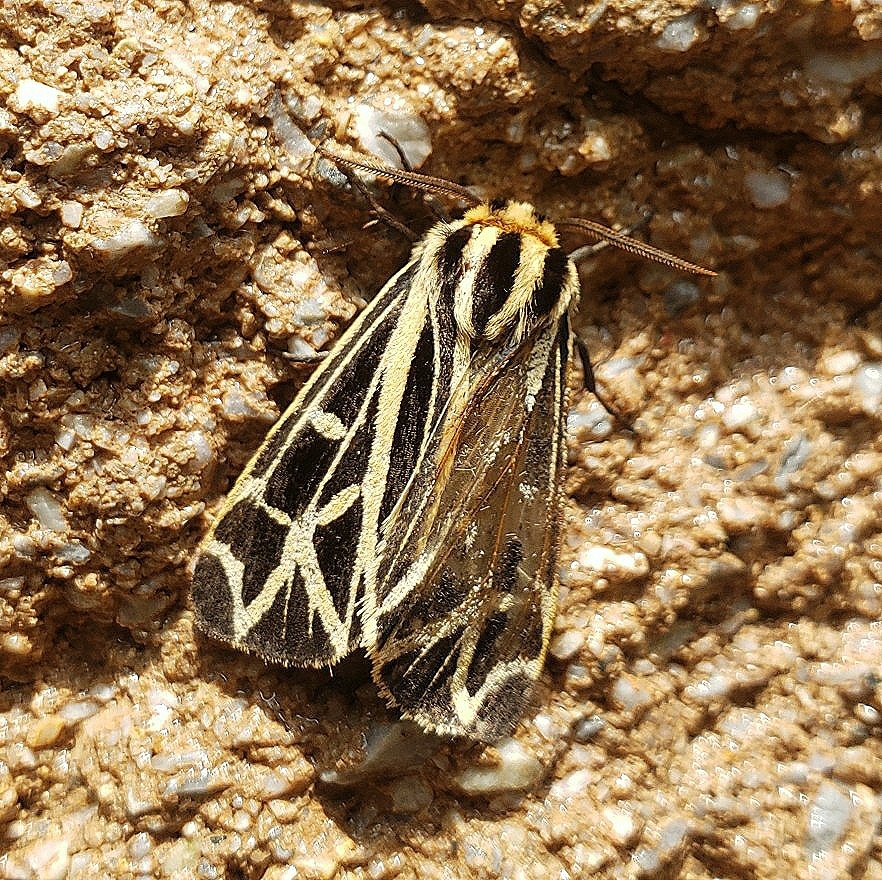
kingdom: Animalia
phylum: Arthropoda
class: Insecta
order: Lepidoptera
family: Erebidae
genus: Apantesis
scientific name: Apantesis
